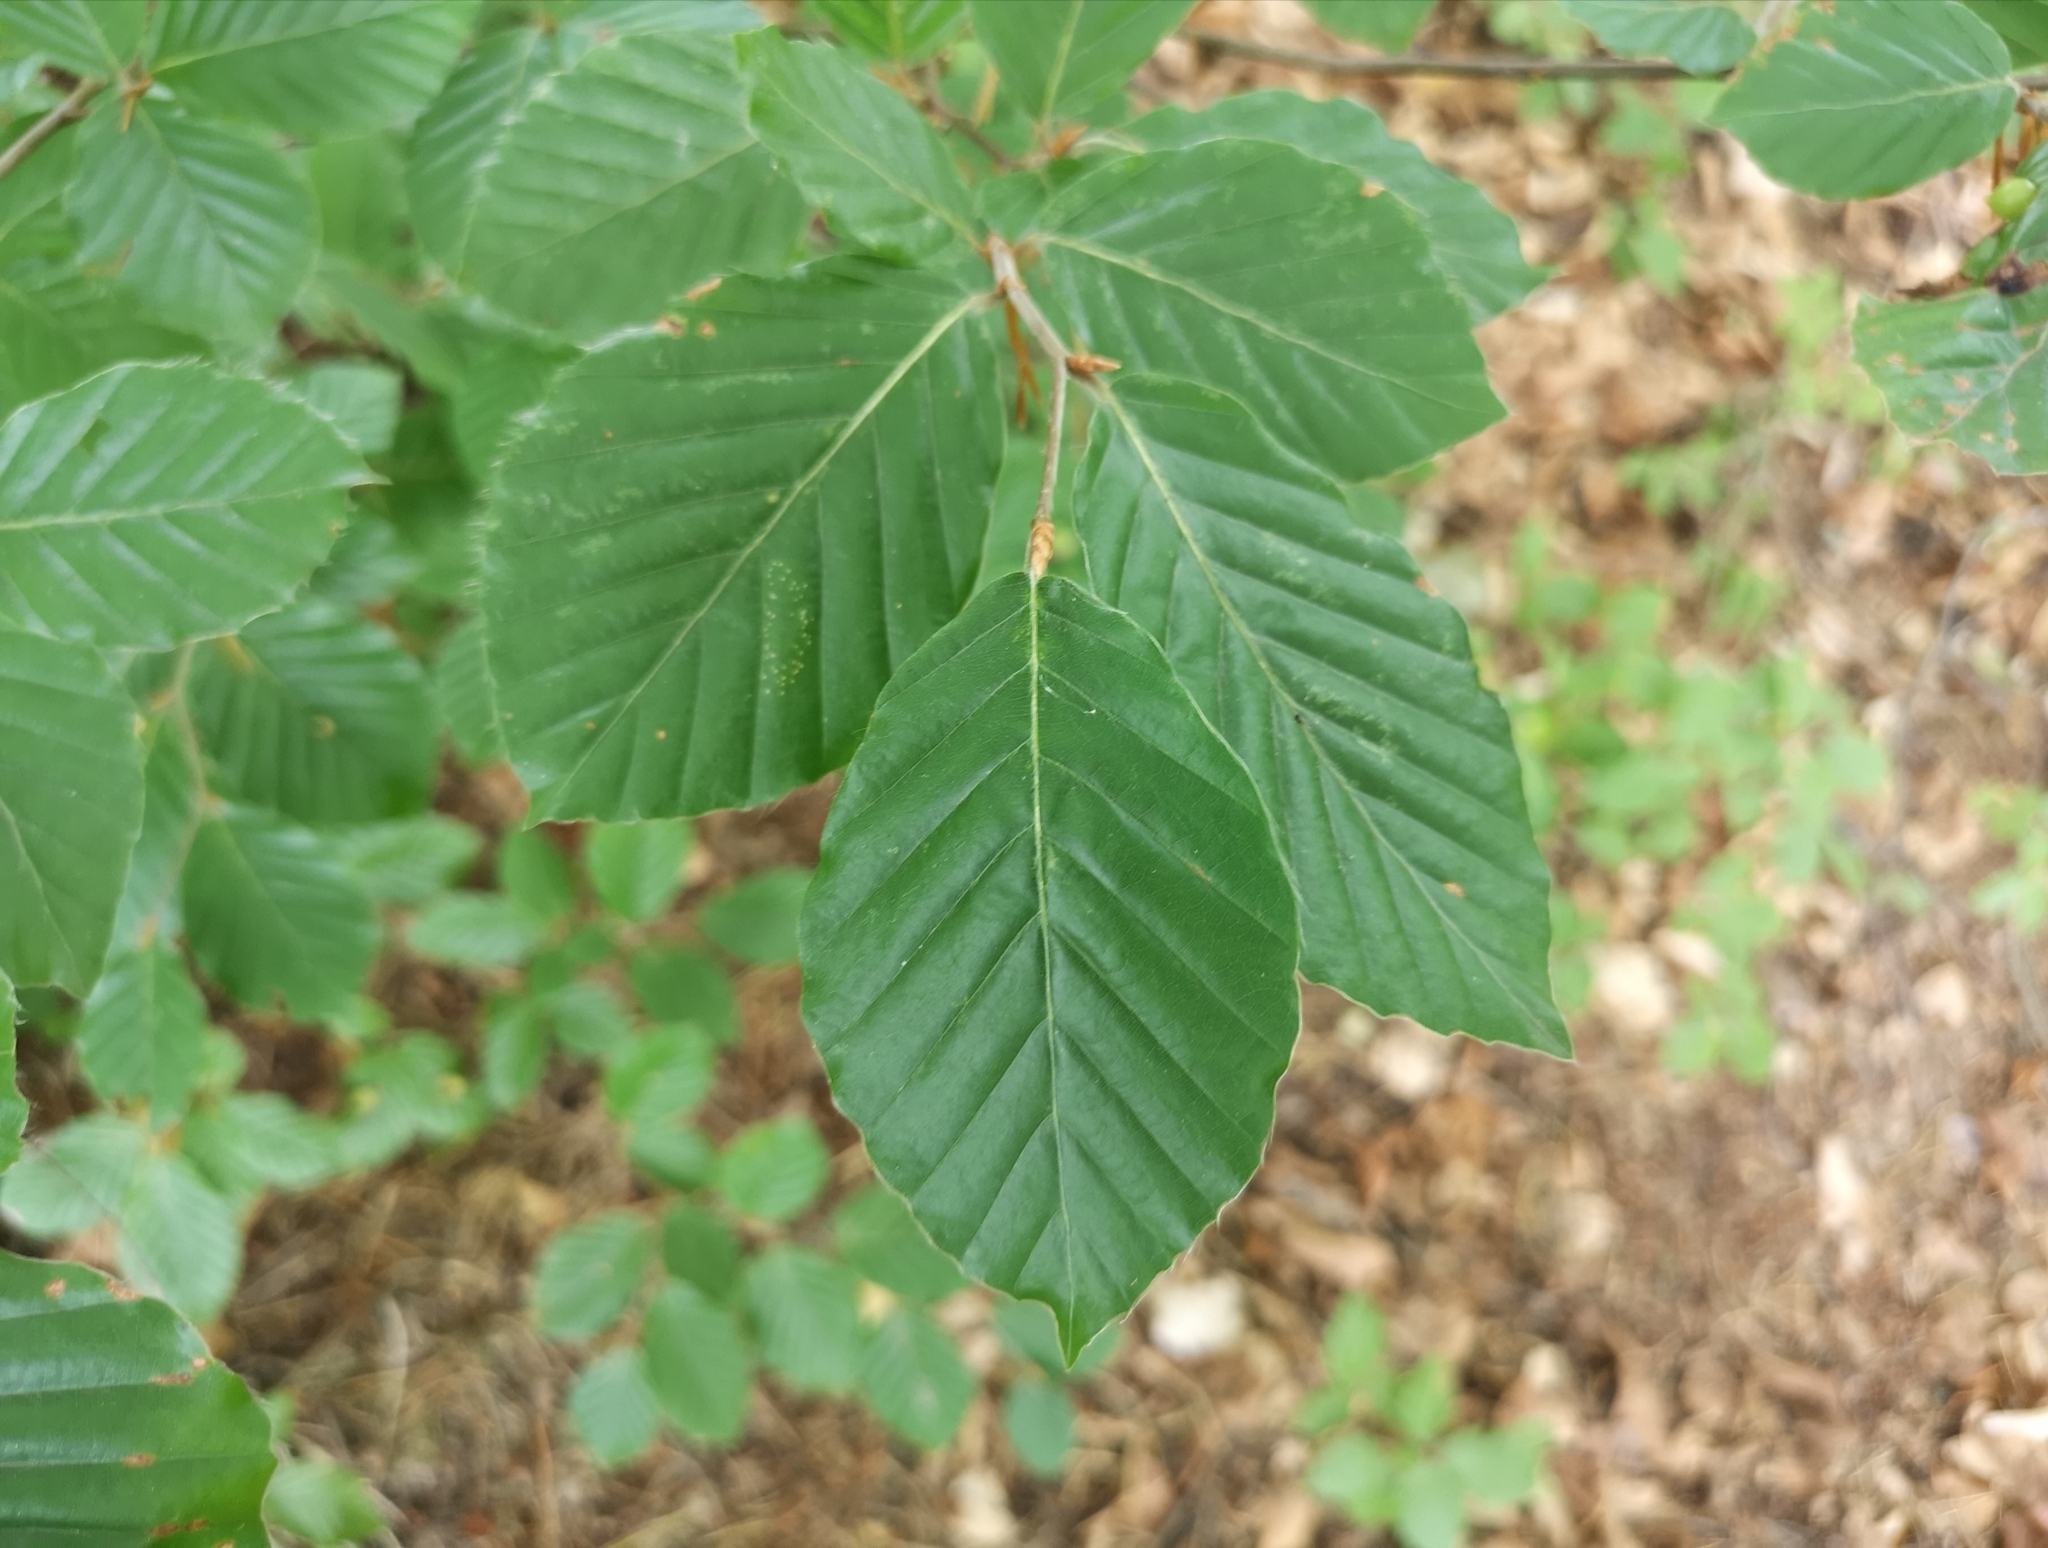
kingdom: Plantae
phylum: Tracheophyta
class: Magnoliopsida
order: Fagales
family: Fagaceae
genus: Fagus
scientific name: Fagus sylvatica
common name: Beech
